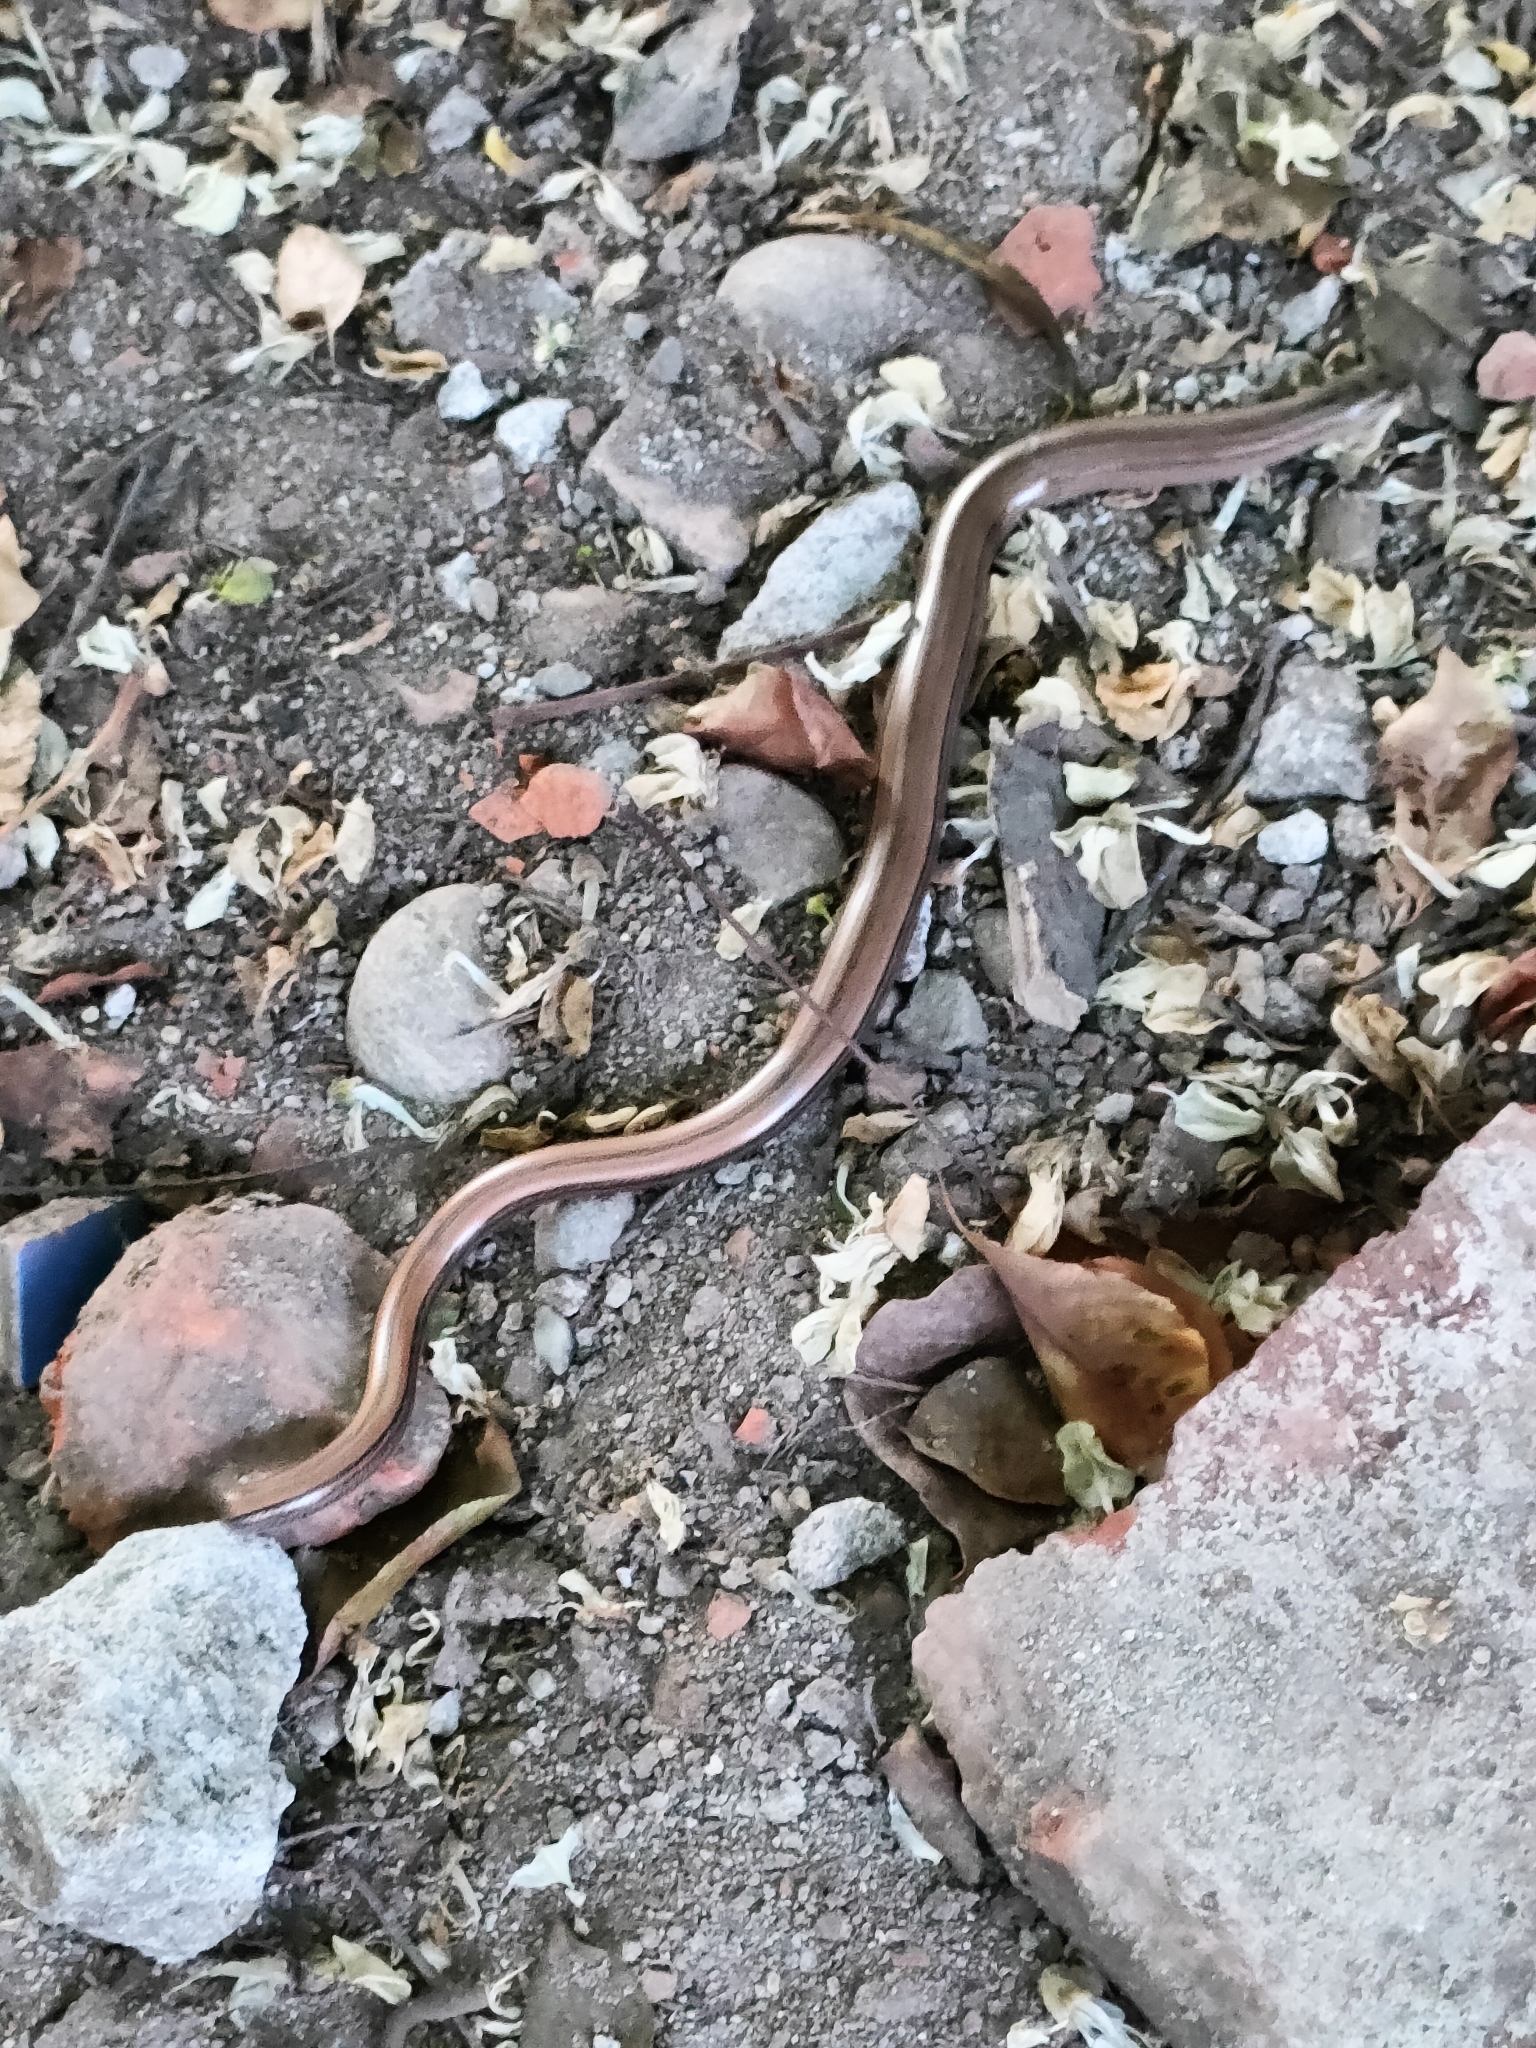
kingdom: Animalia
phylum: Chordata
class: Squamata
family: Anguidae
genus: Anguis
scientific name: Anguis veronensis
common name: Italian slow worm
